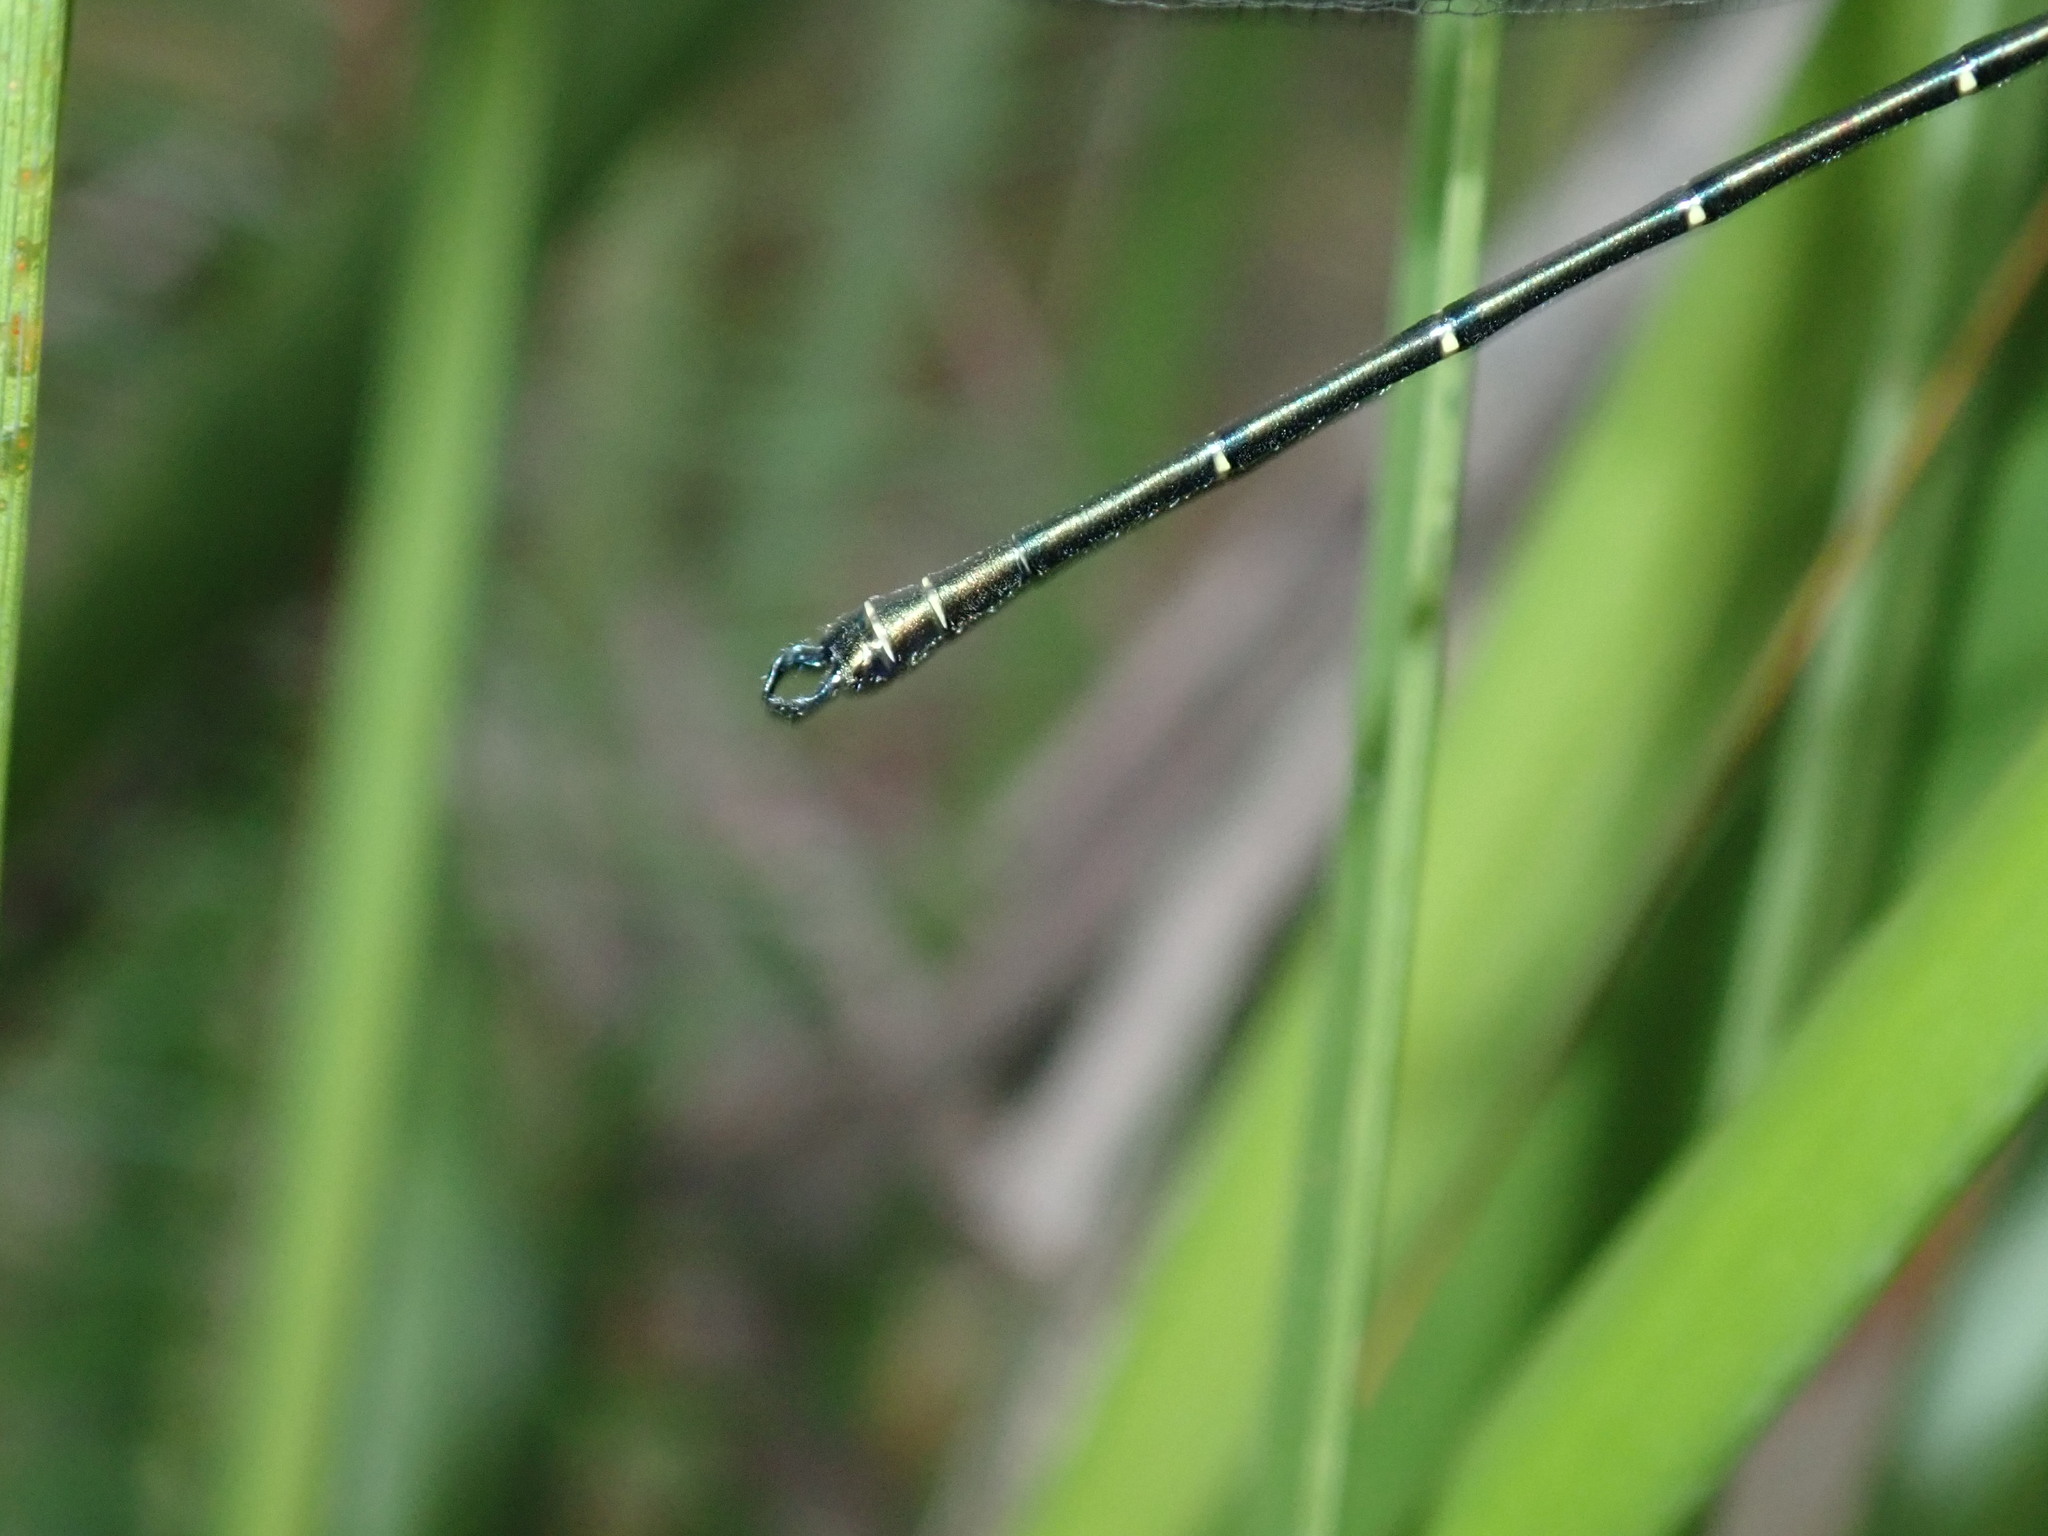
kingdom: Animalia
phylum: Arthropoda
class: Insecta
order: Odonata
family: Argiolestidae
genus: Austroargiolestes
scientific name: Austroargiolestes icteromelas
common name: Common flatwing
